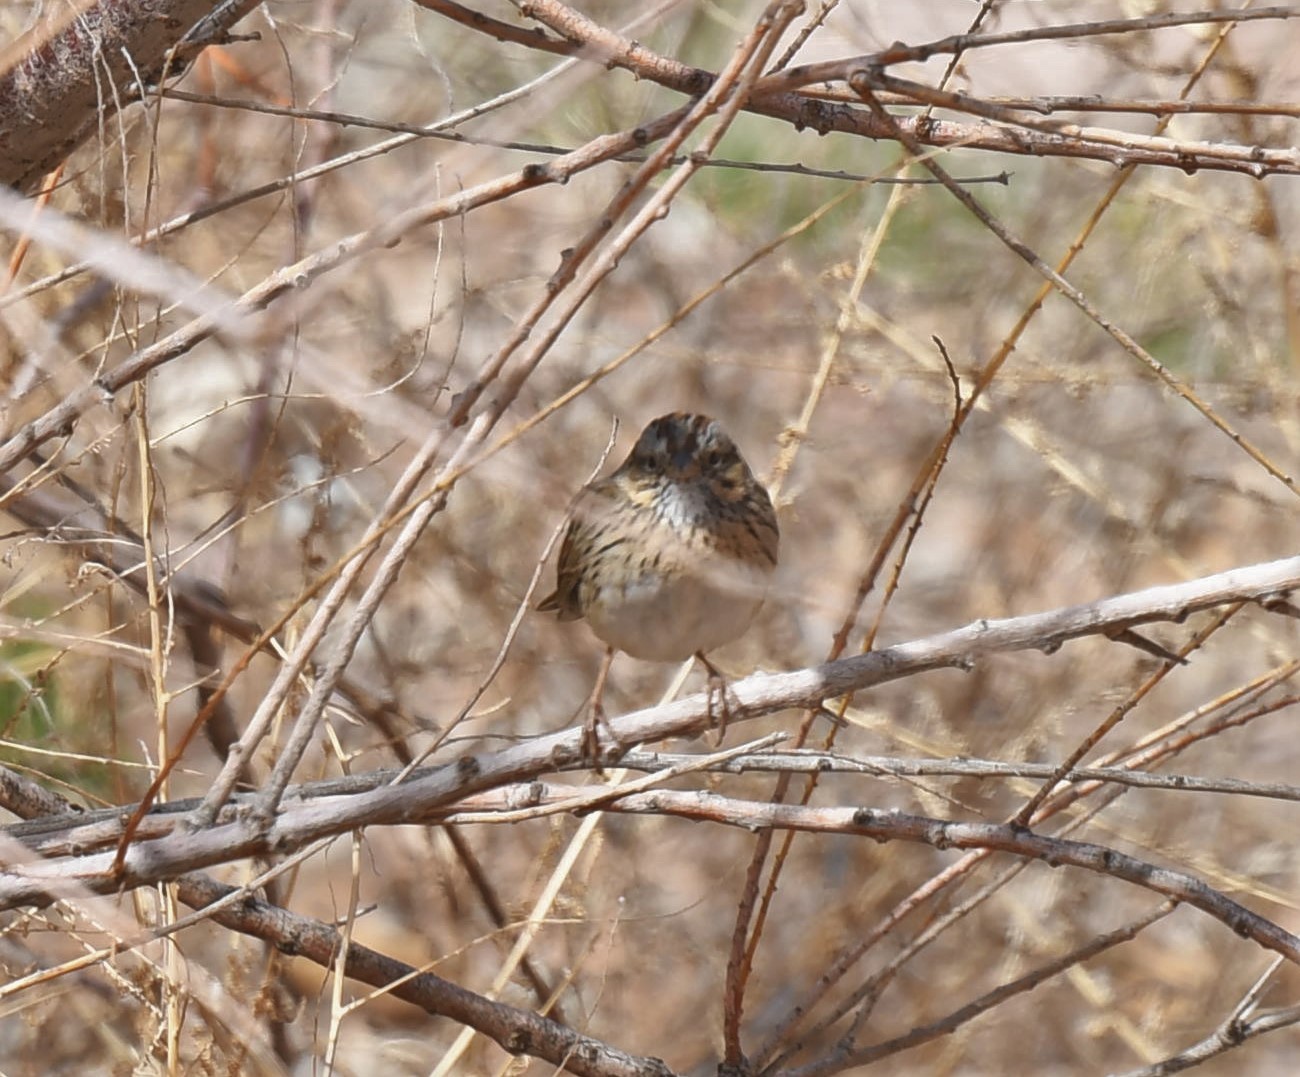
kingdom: Animalia
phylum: Chordata
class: Aves
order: Passeriformes
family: Passerellidae
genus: Melospiza
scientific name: Melospiza lincolnii
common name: Lincoln's sparrow
